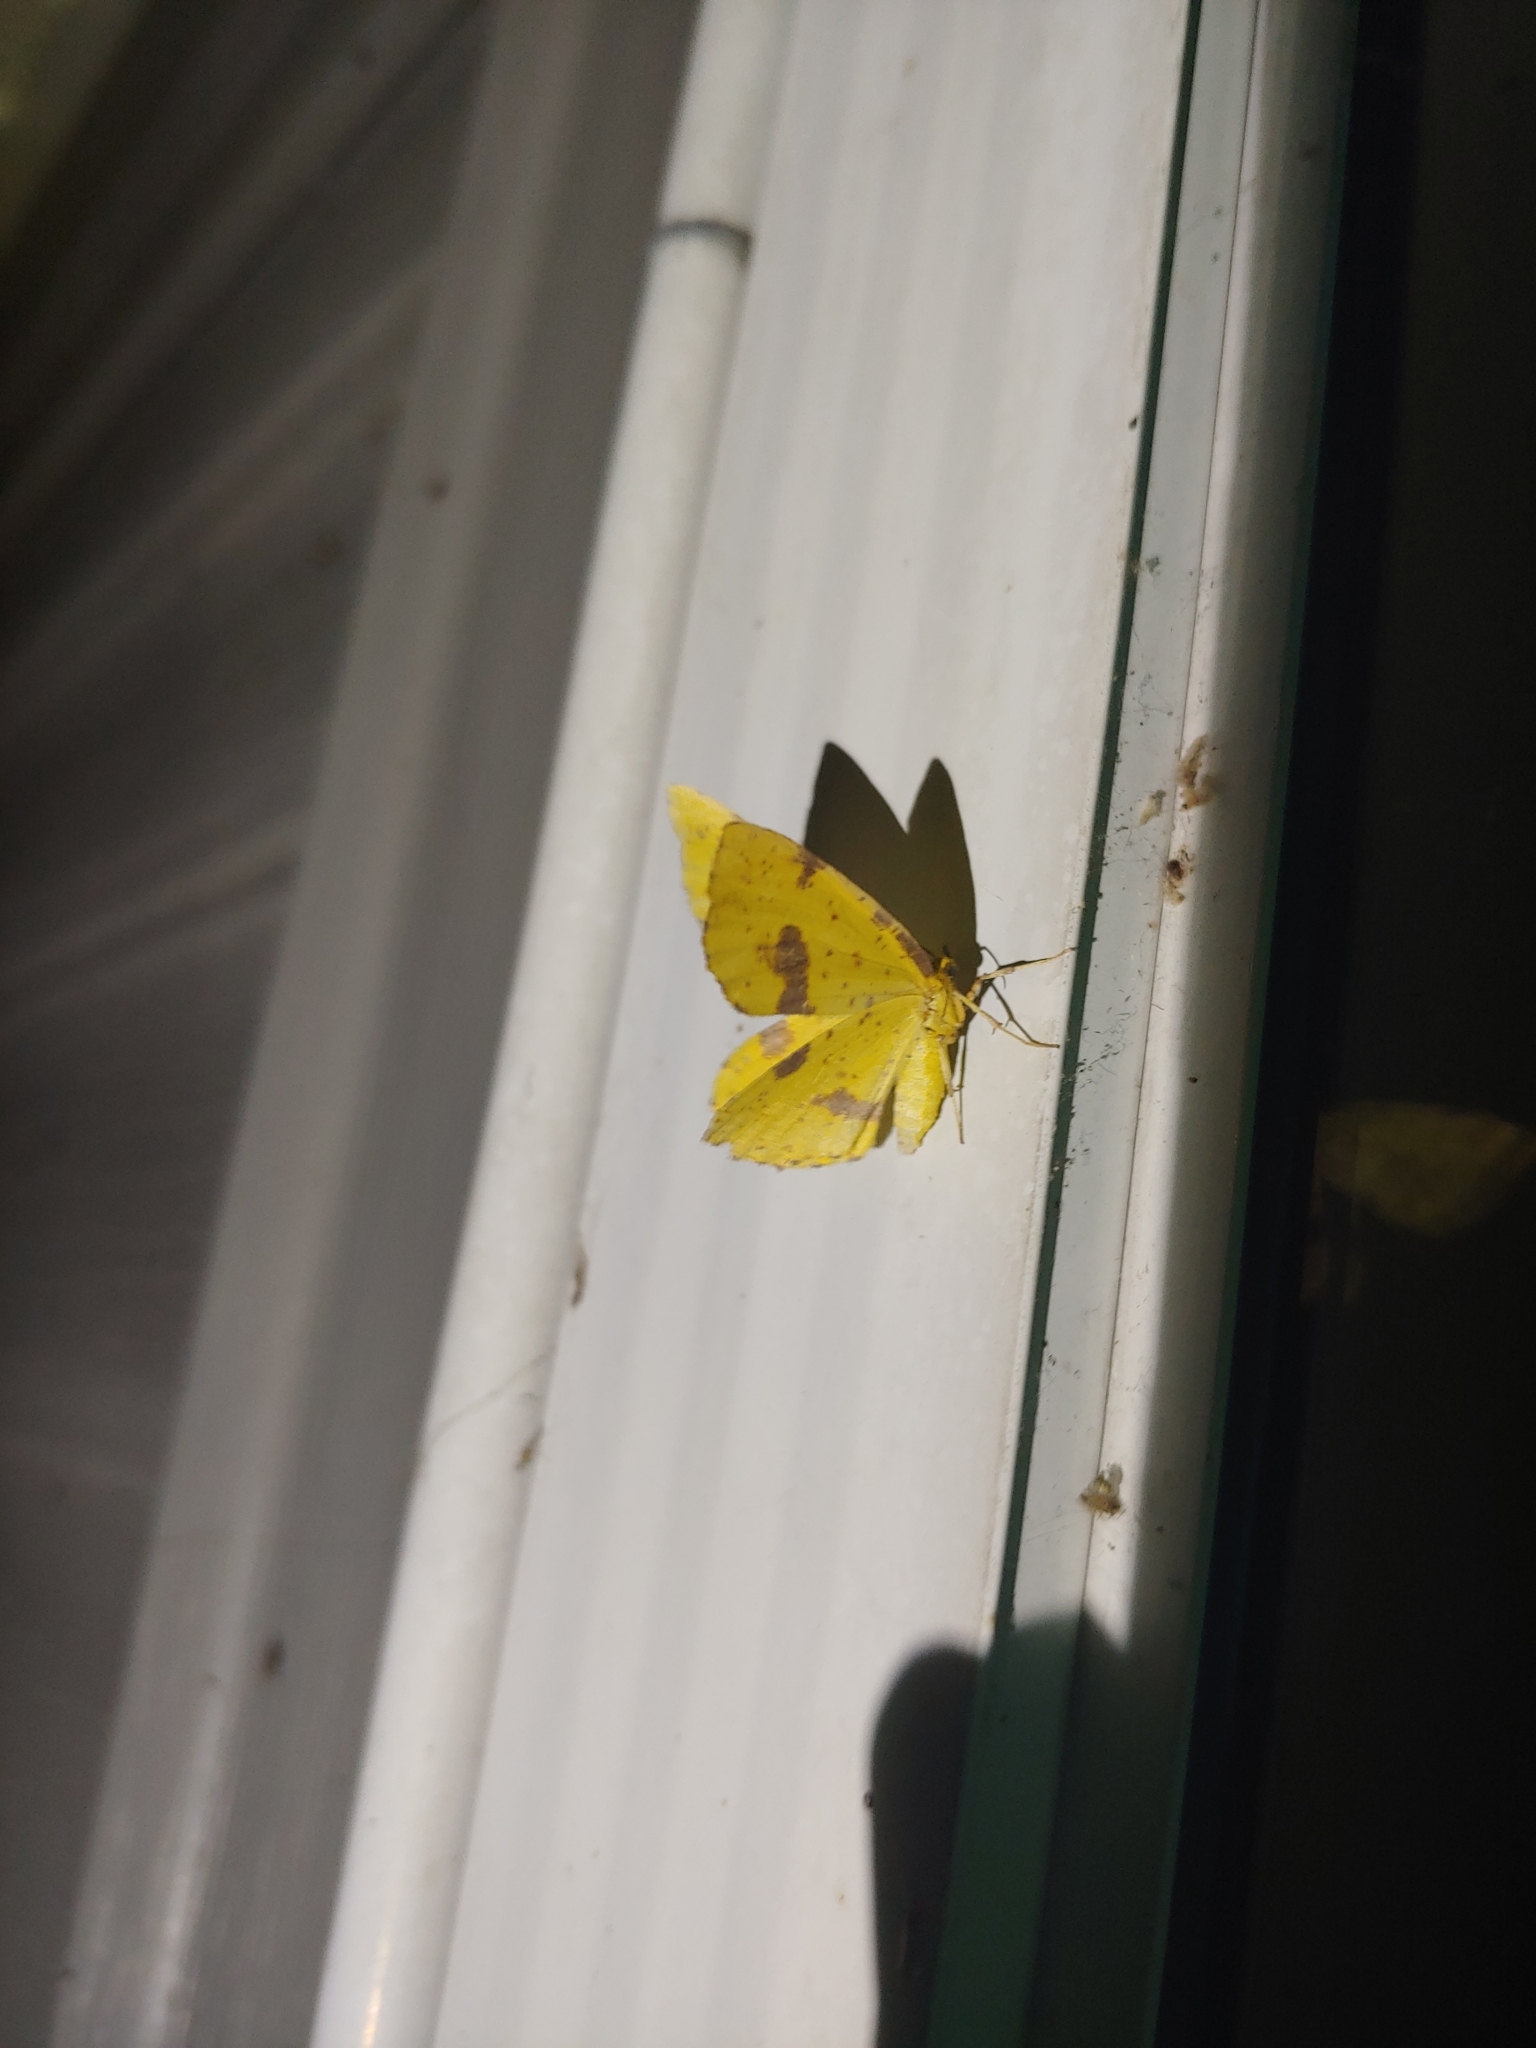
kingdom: Animalia
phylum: Arthropoda
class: Insecta
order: Lepidoptera
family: Geometridae
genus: Xanthotype
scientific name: Xanthotype
